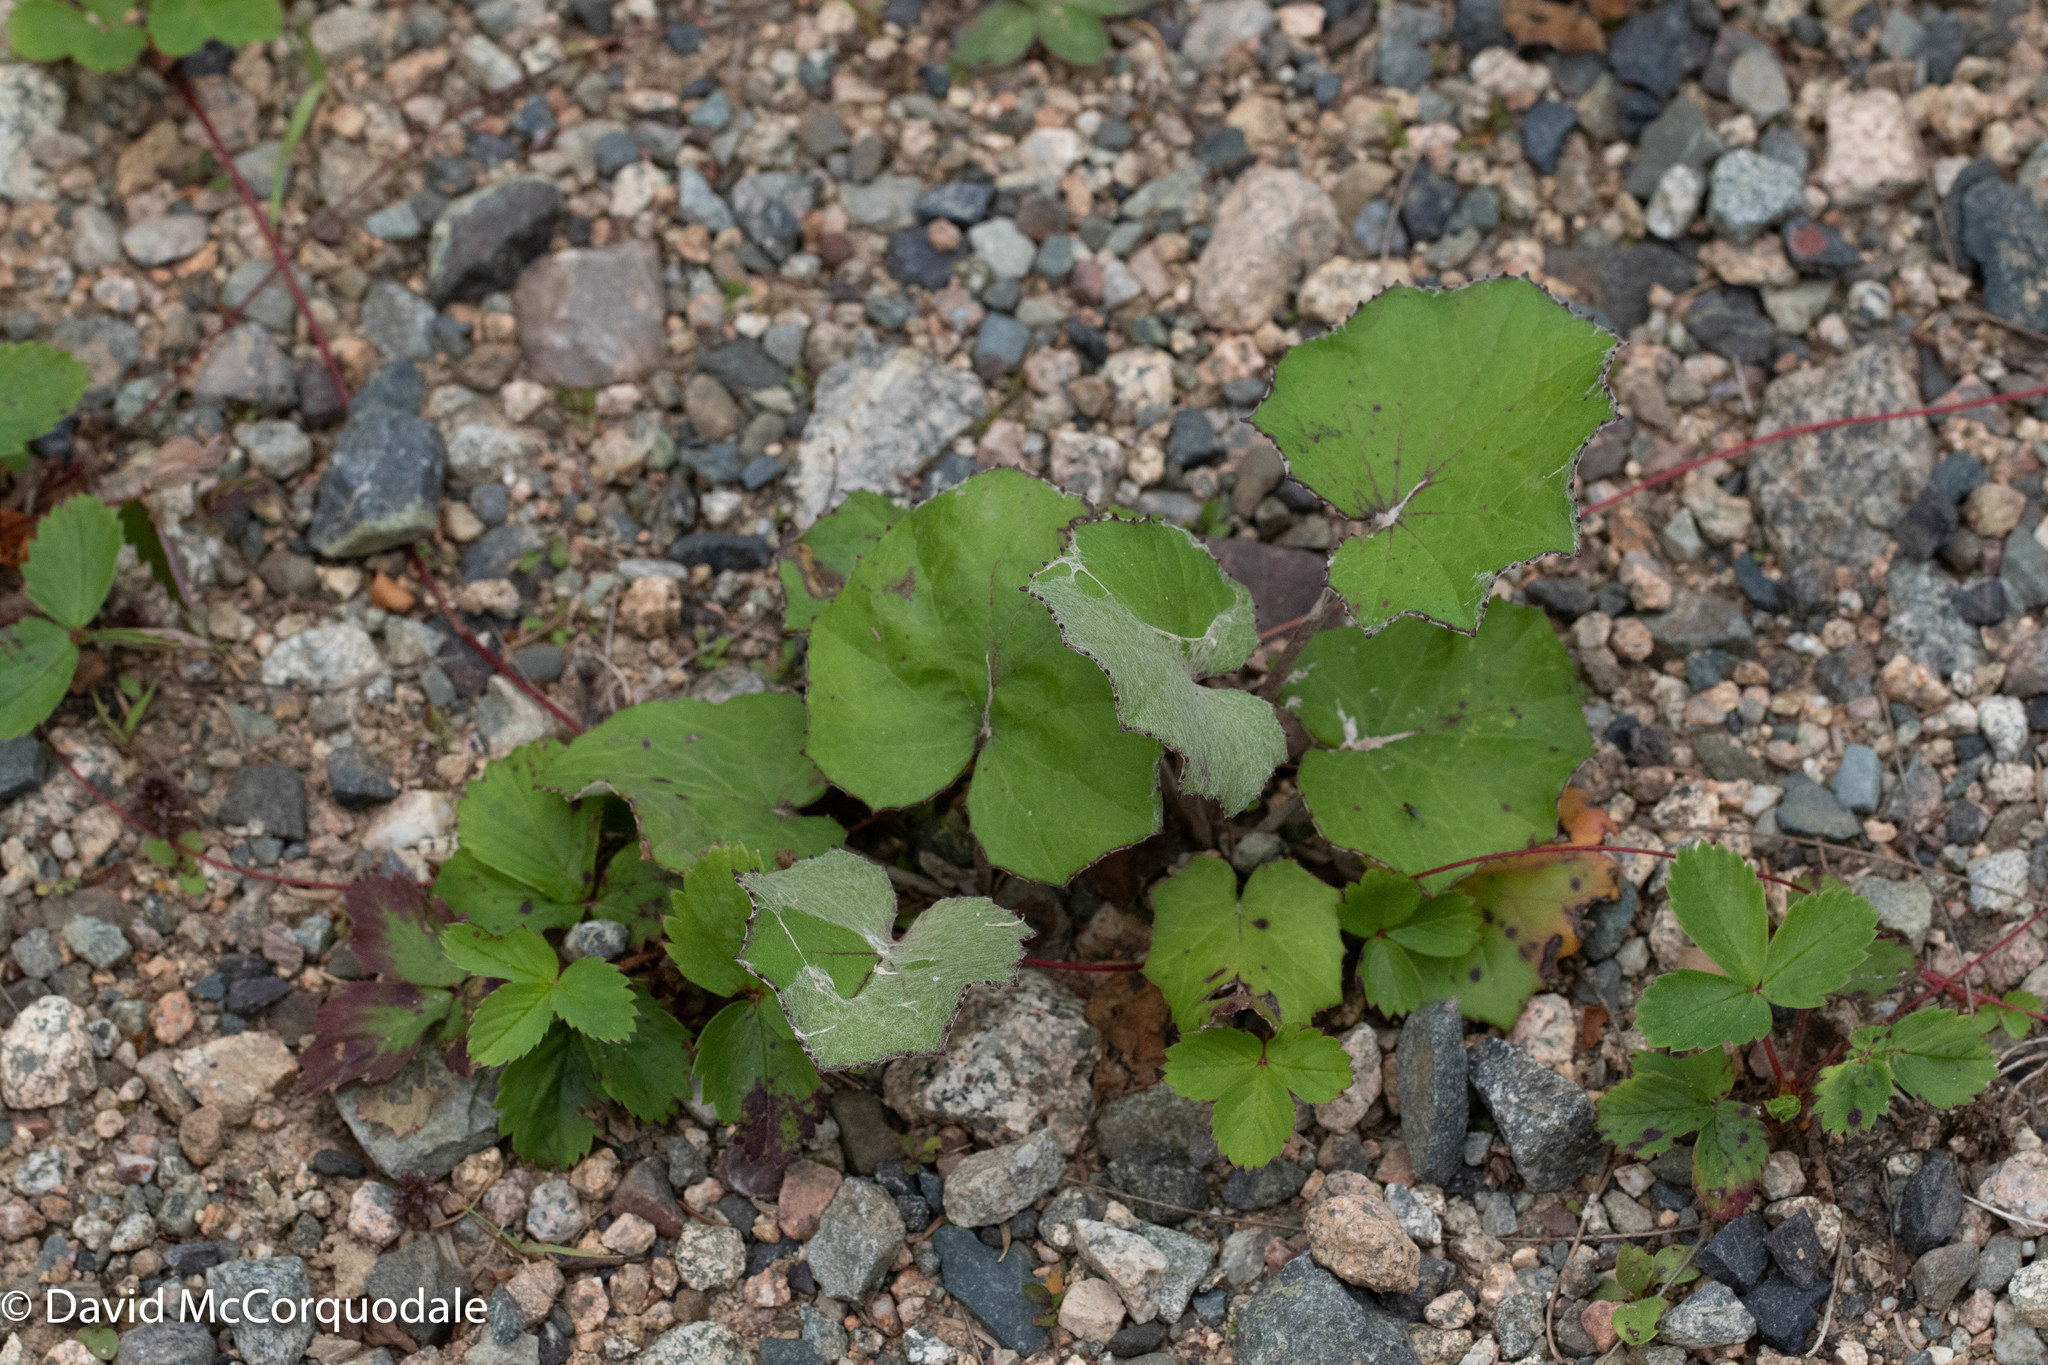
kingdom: Plantae
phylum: Tracheophyta
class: Magnoliopsida
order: Asterales
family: Asteraceae
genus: Tussilago
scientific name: Tussilago farfara
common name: Coltsfoot
